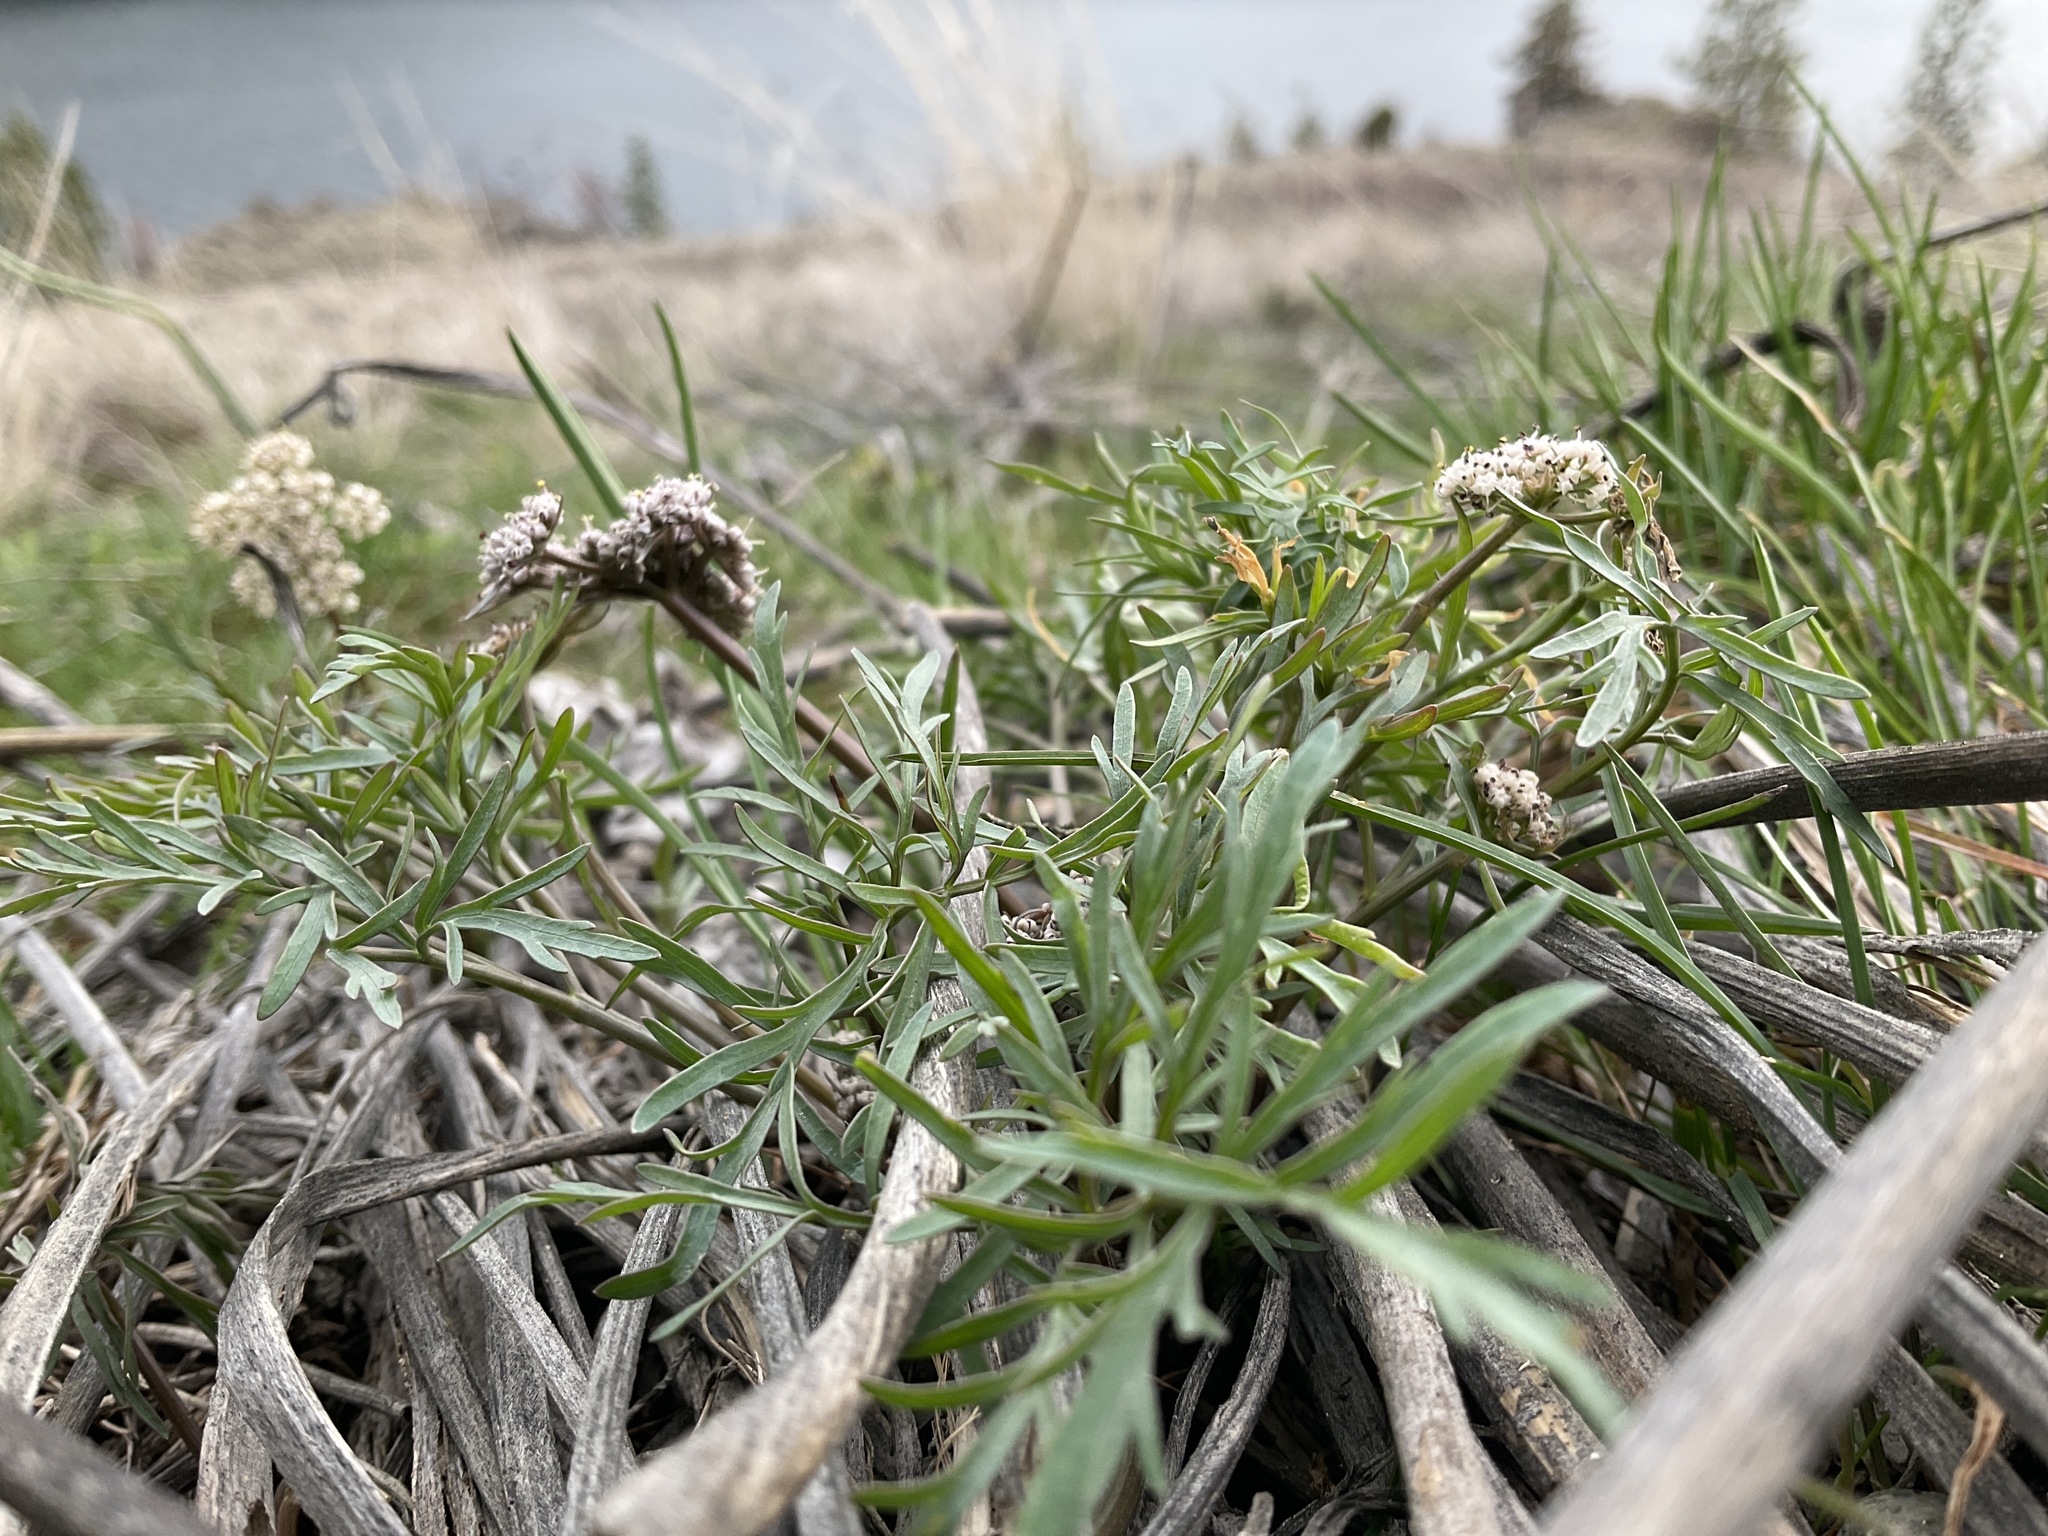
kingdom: Plantae
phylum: Tracheophyta
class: Magnoliopsida
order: Apiales
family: Apiaceae
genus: Lomatium
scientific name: Lomatium geyeri
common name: Geyer's biscuitroot
